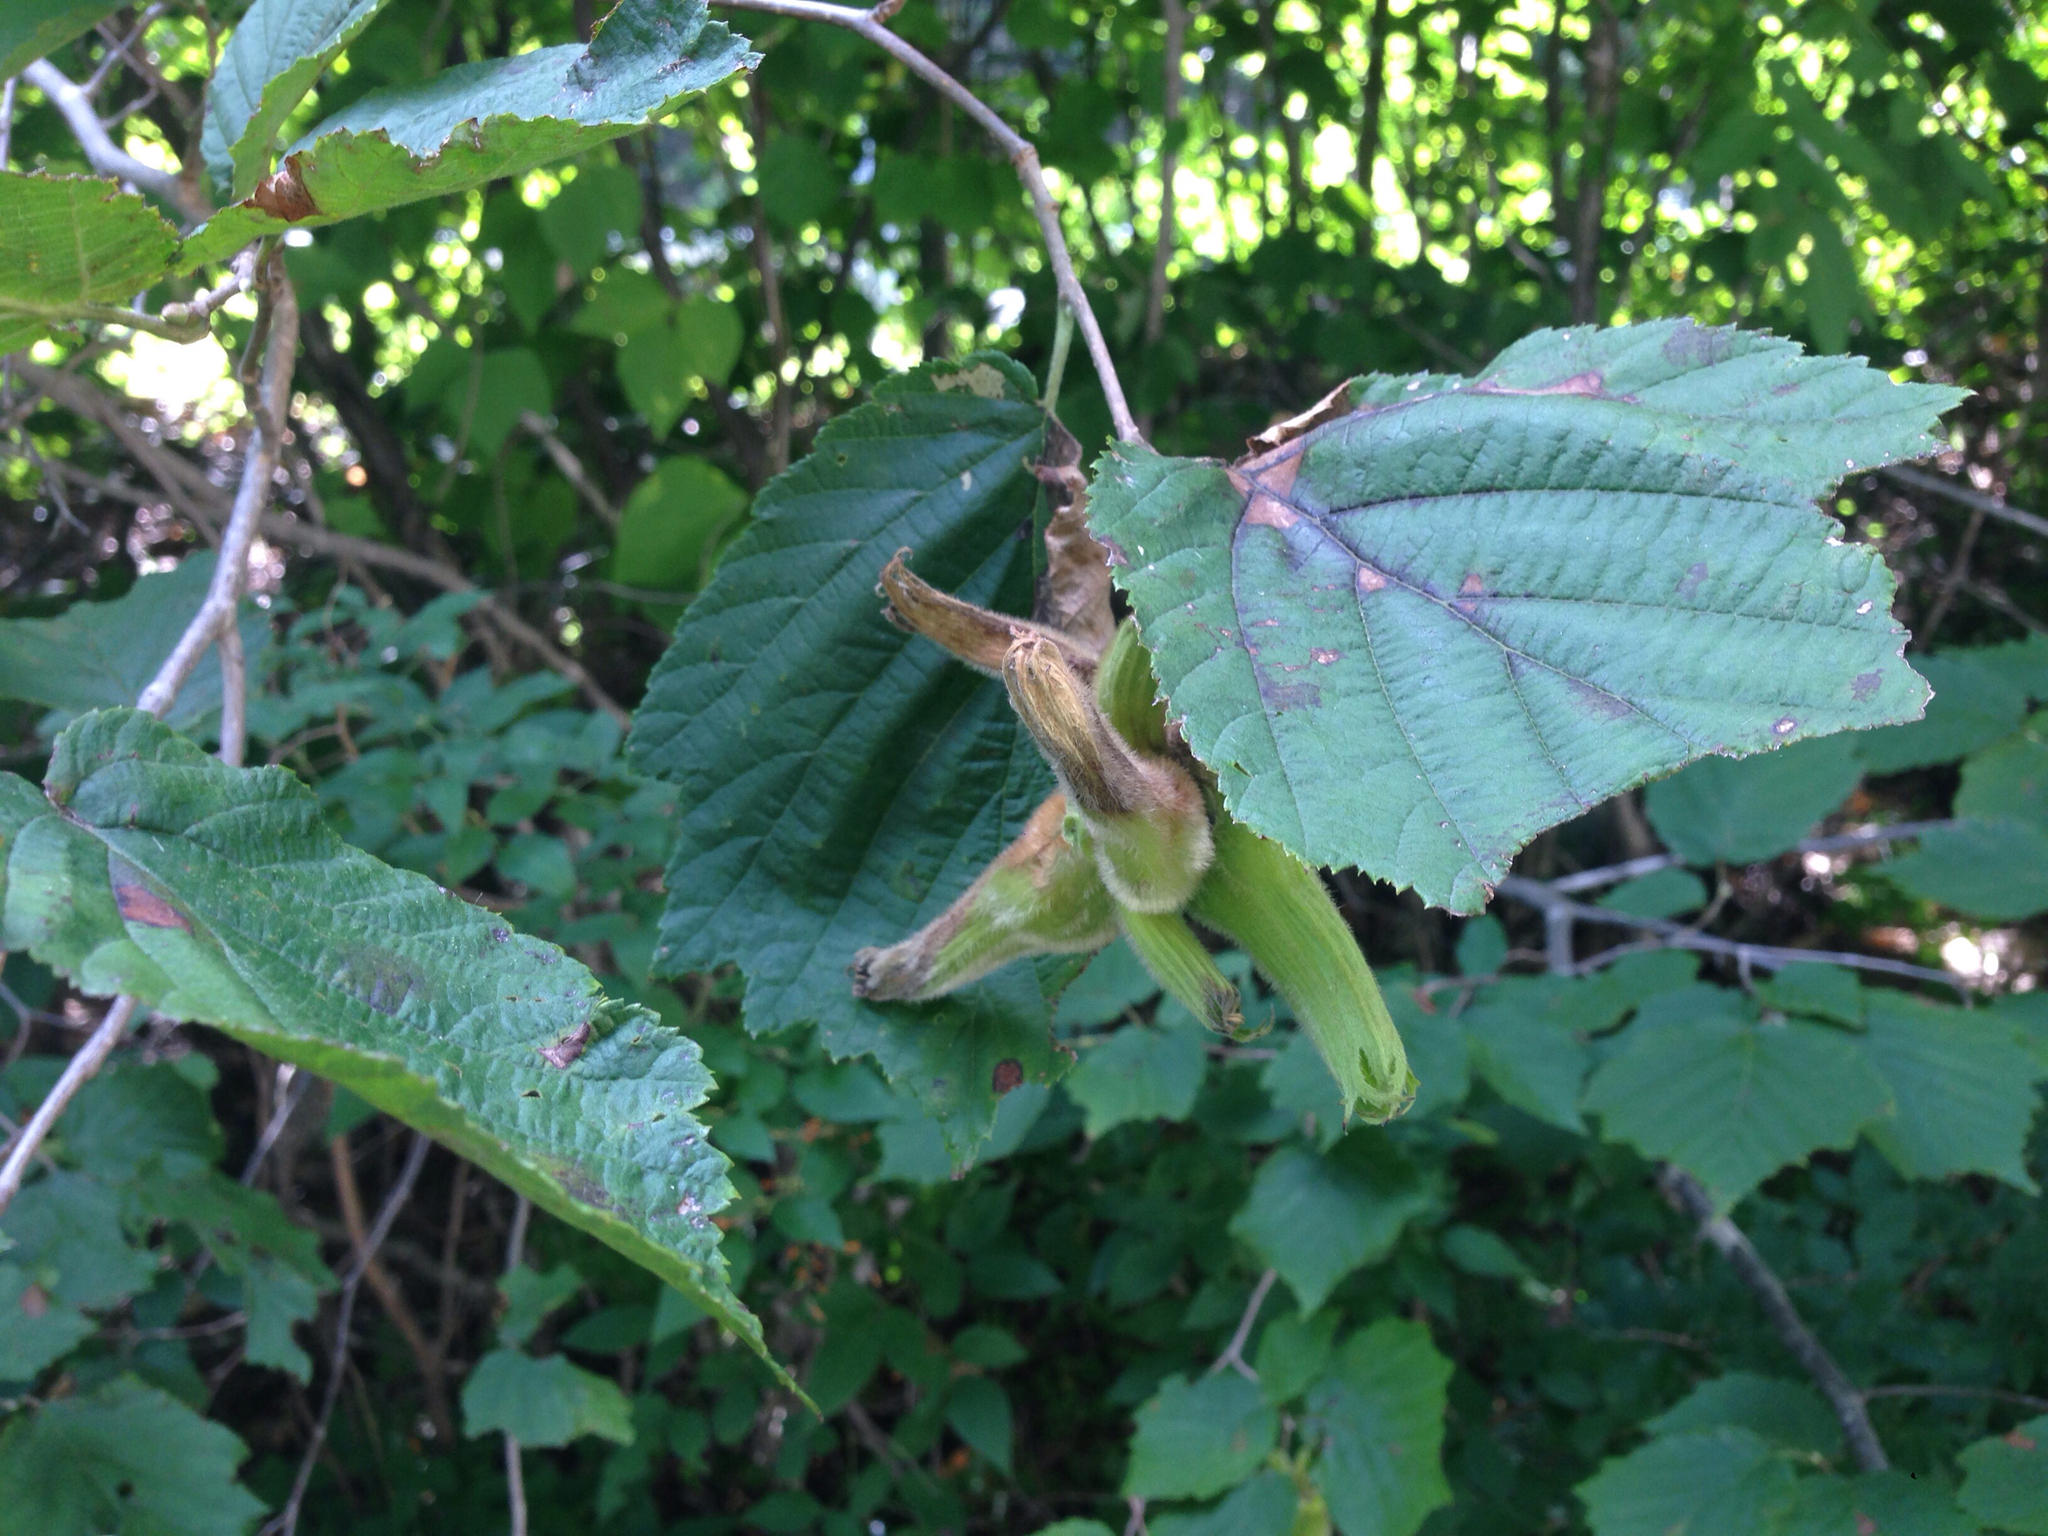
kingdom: Plantae
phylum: Tracheophyta
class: Magnoliopsida
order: Fagales
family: Betulaceae
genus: Corylus
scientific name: Corylus sieboldiana
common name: Japanese hazel
